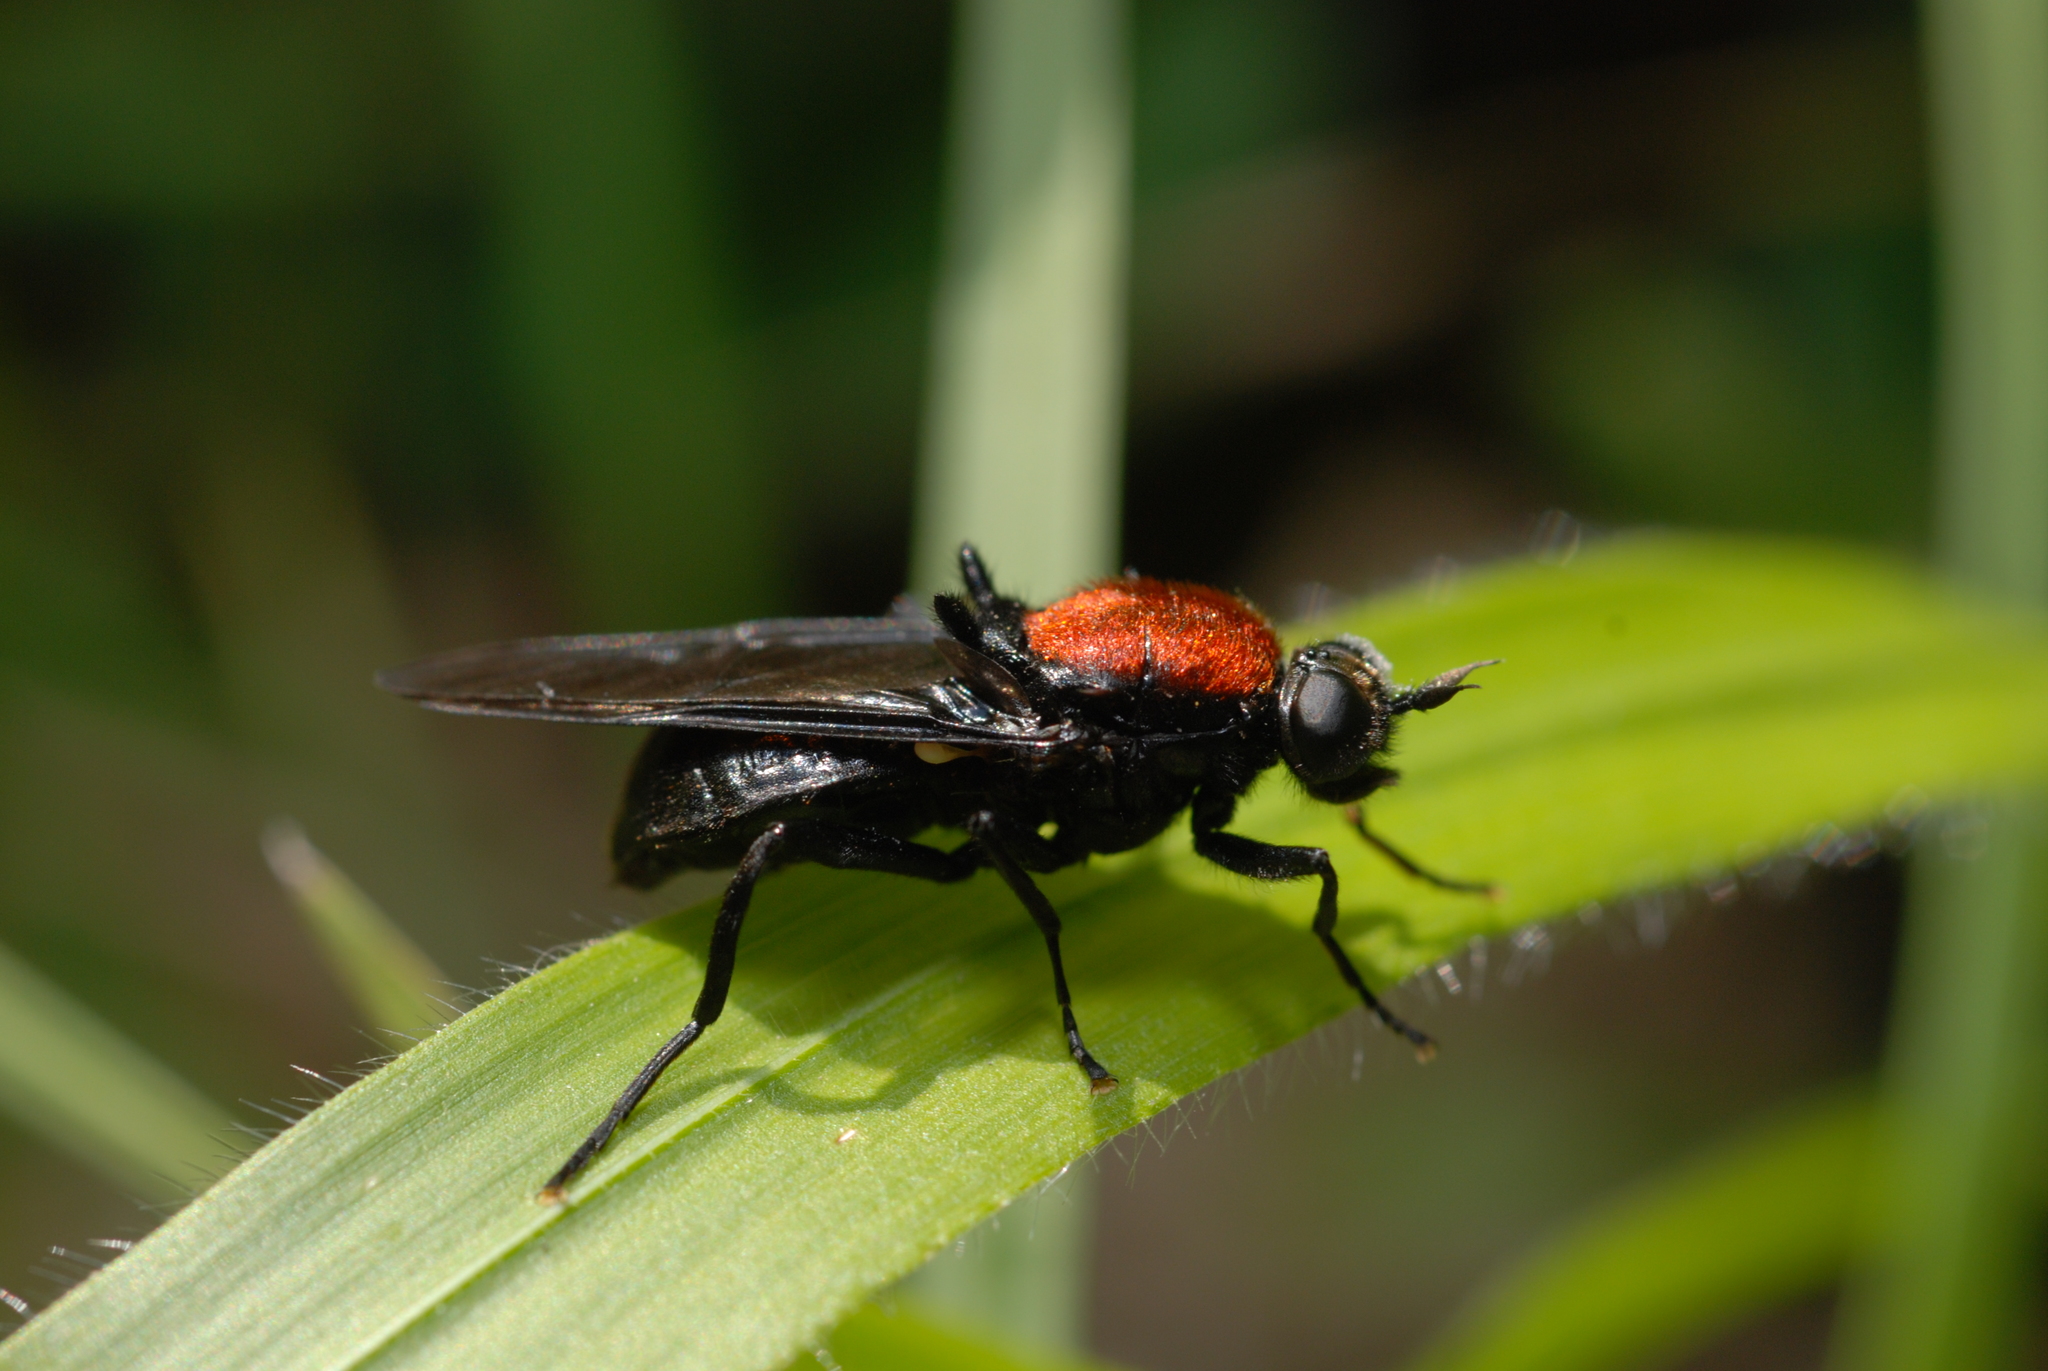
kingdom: Animalia
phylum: Arthropoda
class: Insecta
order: Diptera
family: Stratiomyidae
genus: Clitellaria
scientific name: Clitellaria ephippium
